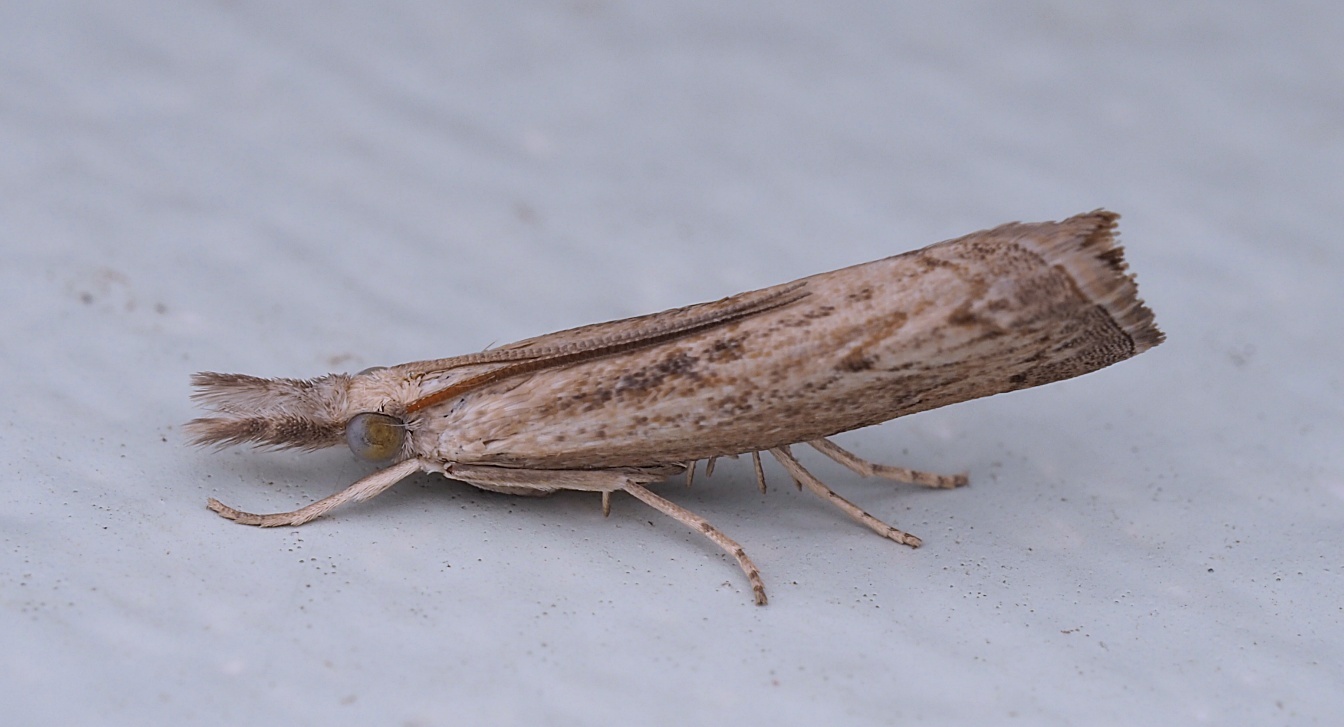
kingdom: Animalia
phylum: Arthropoda
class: Insecta
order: Lepidoptera
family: Crambidae
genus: Culladia
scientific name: Culladia cuneiferellus
